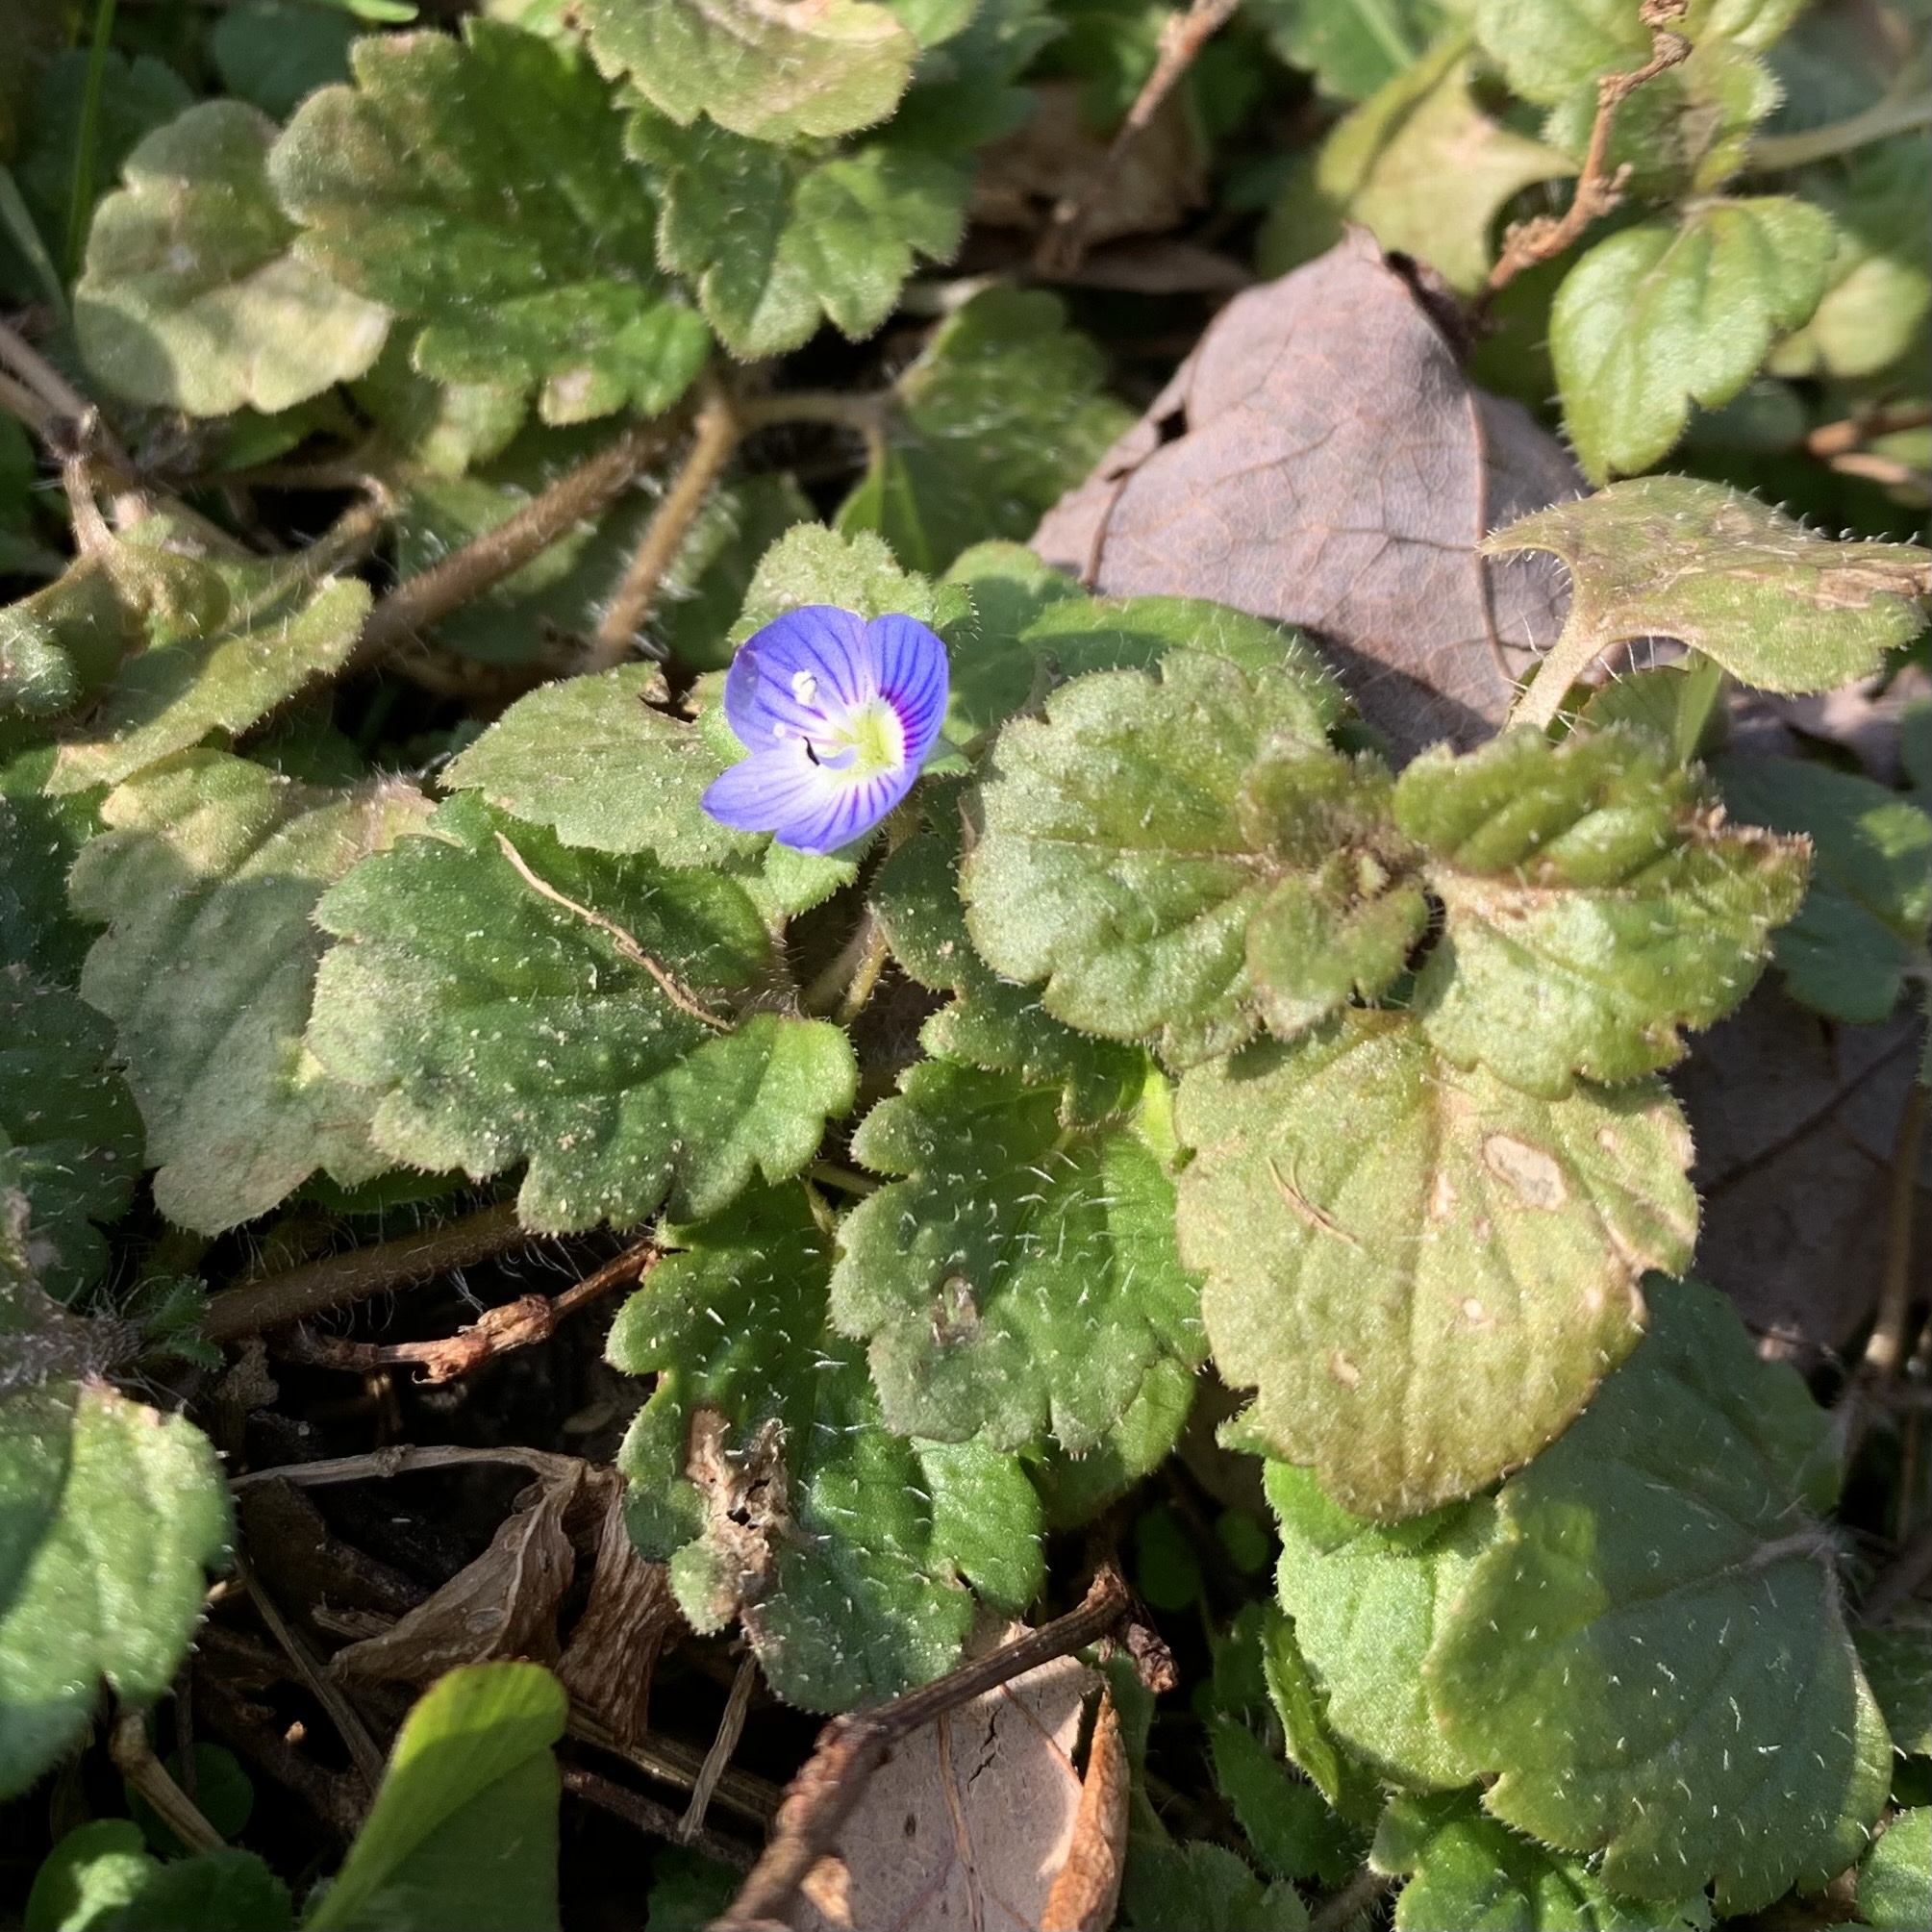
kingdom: Plantae
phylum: Tracheophyta
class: Magnoliopsida
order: Lamiales
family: Plantaginaceae
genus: Veronica
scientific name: Veronica persica
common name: Common field-speedwell
